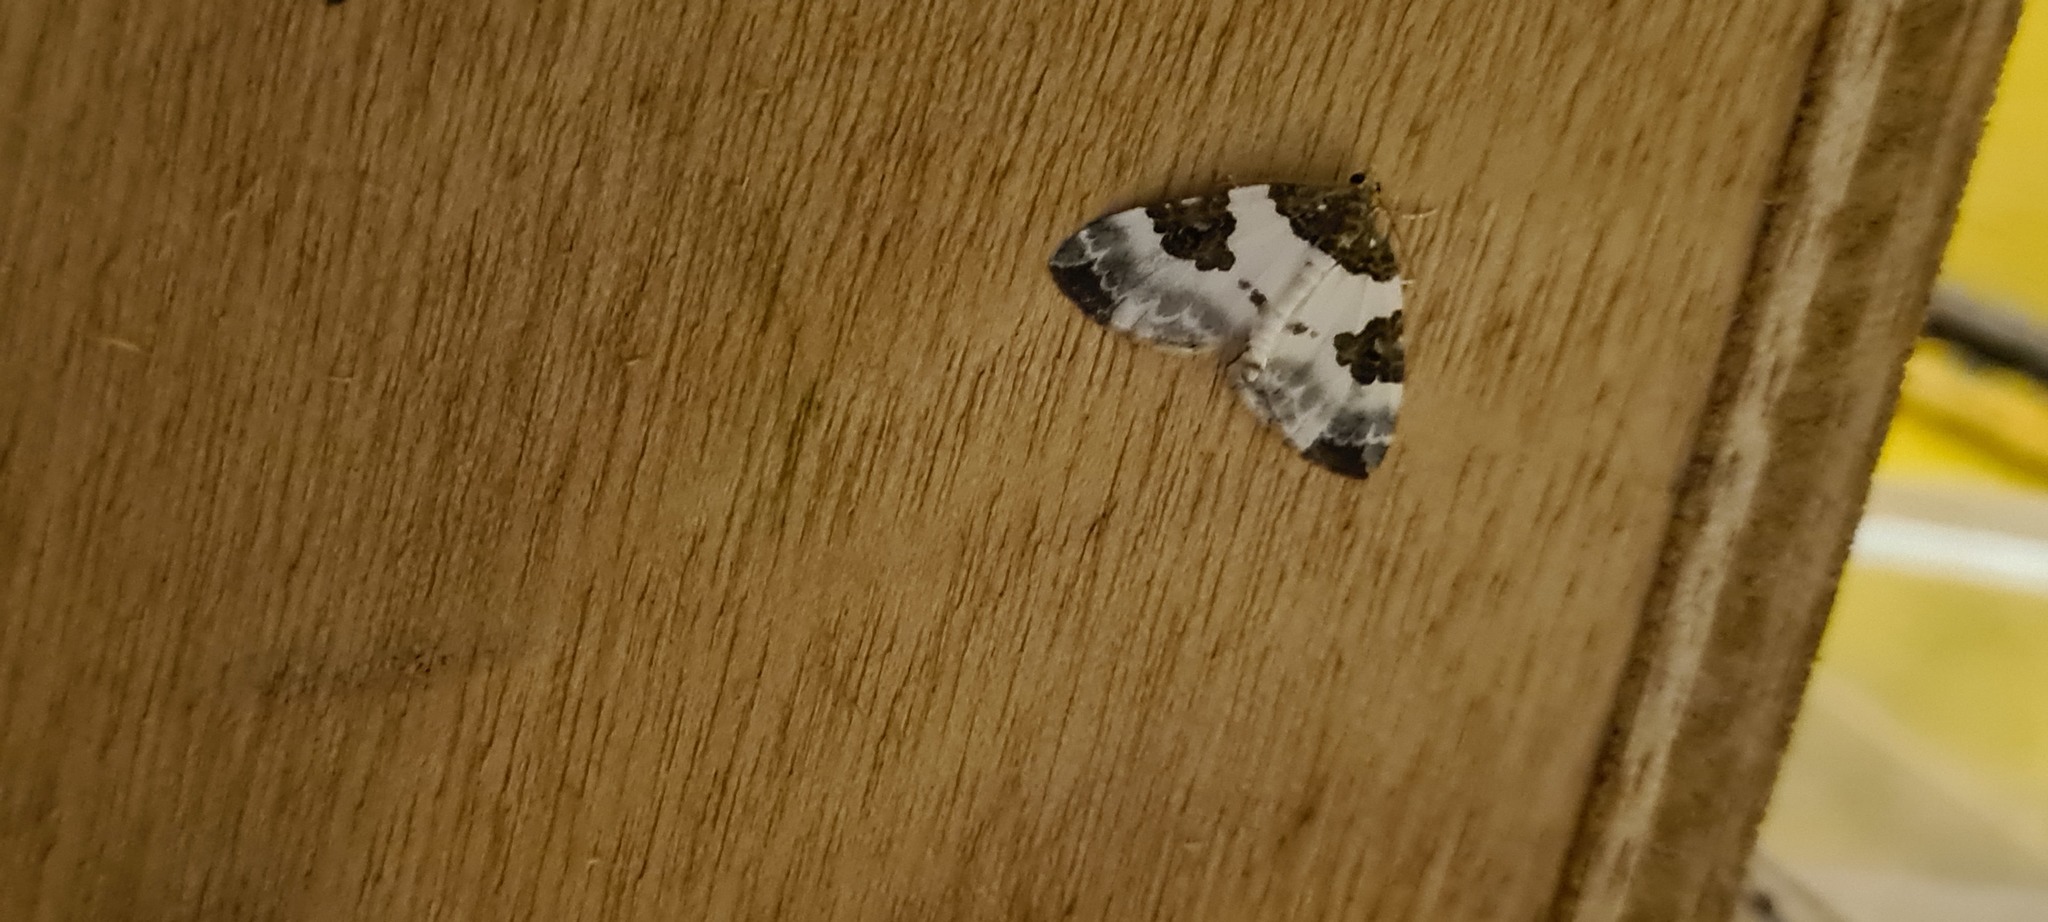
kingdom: Animalia
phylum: Arthropoda
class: Insecta
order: Lepidoptera
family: Geometridae
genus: Plemyria
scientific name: Plemyria rubiginata
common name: Blue-bordered carpet
